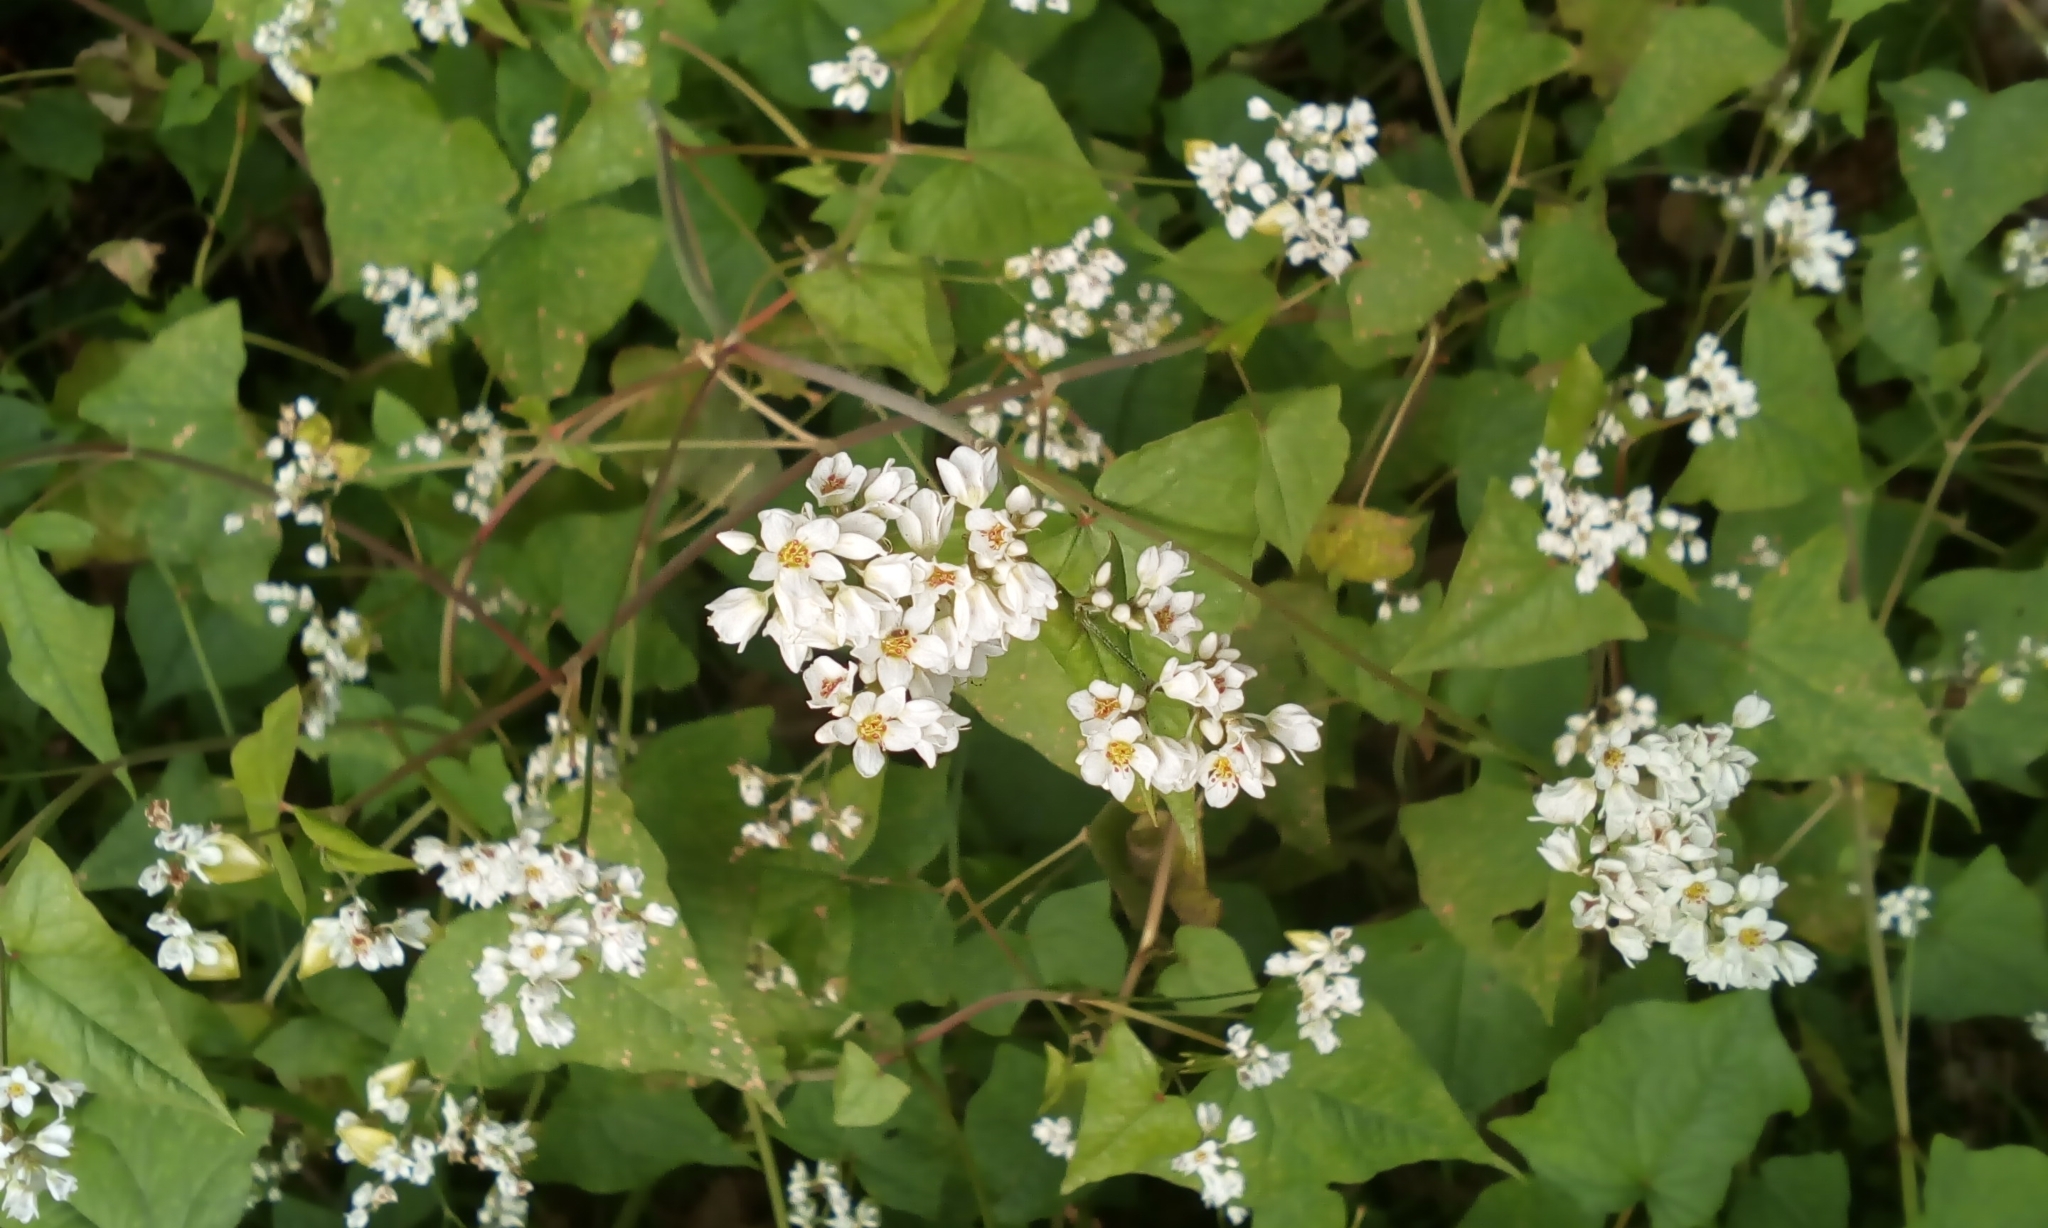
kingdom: Plantae
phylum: Tracheophyta
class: Magnoliopsida
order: Caryophyllales
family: Polygonaceae
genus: Fagopyrum
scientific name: Fagopyrum cymosum
